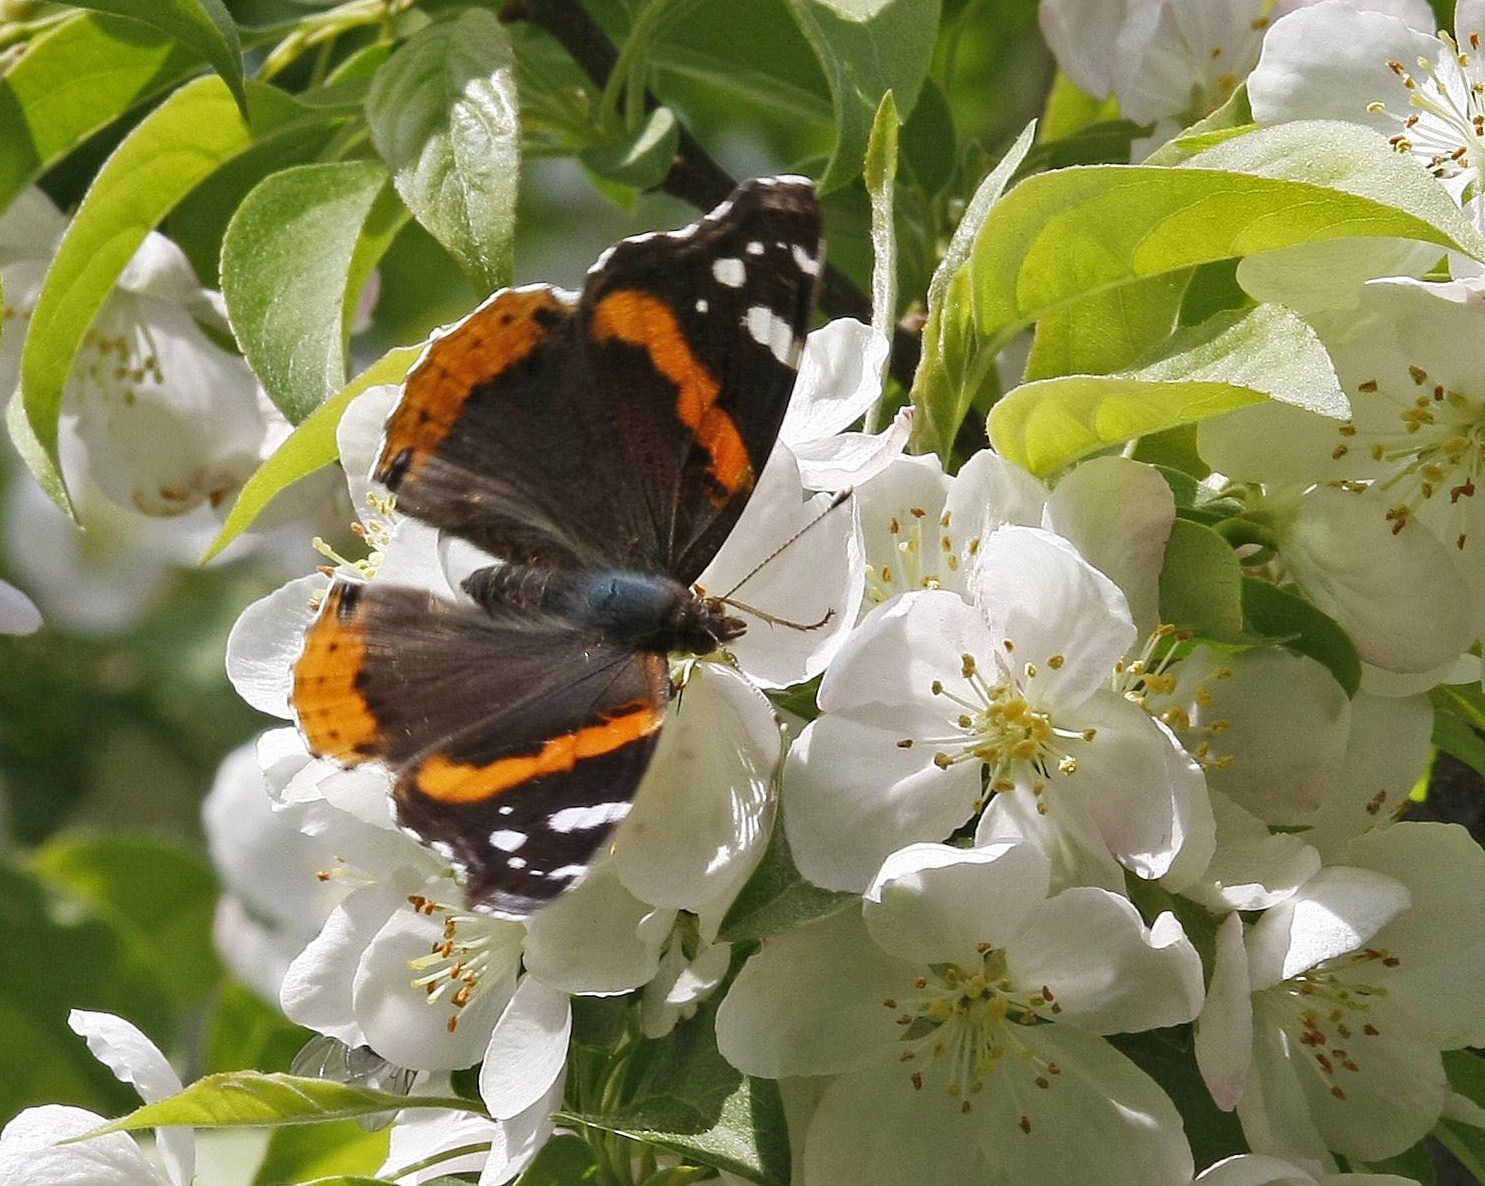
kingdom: Animalia
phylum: Arthropoda
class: Insecta
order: Lepidoptera
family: Nymphalidae
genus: Vanessa
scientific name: Vanessa atalanta
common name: Red admiral
